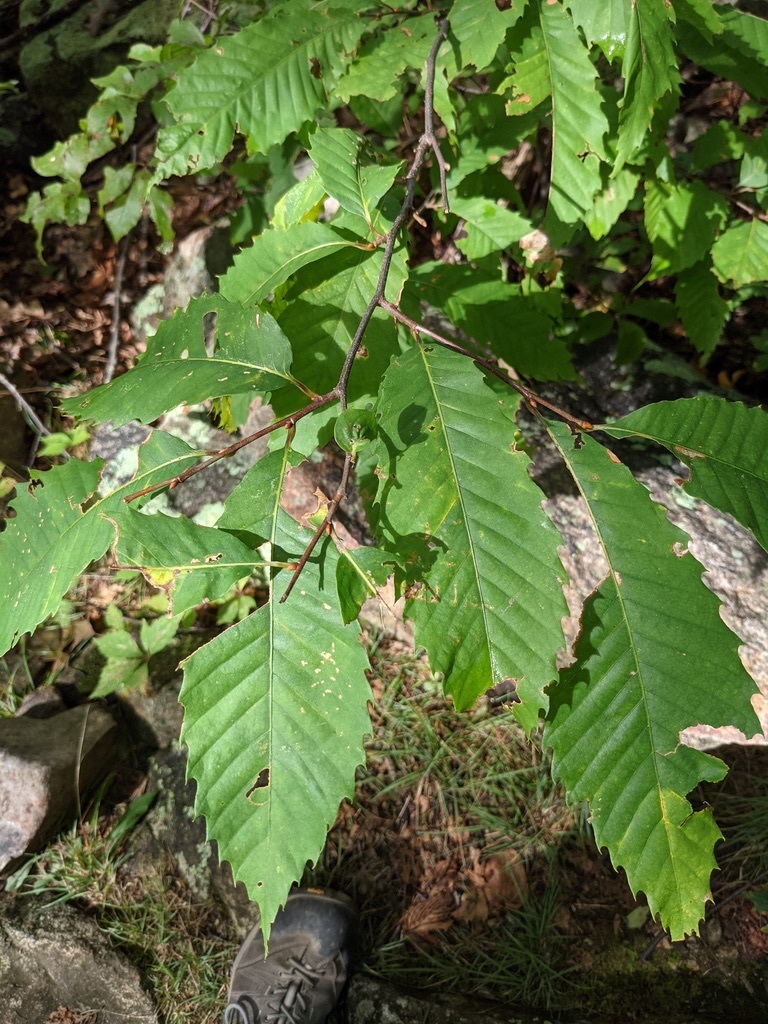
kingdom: Plantae
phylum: Tracheophyta
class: Magnoliopsida
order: Fagales
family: Fagaceae
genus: Castanea
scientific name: Castanea dentata
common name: American chestnut
